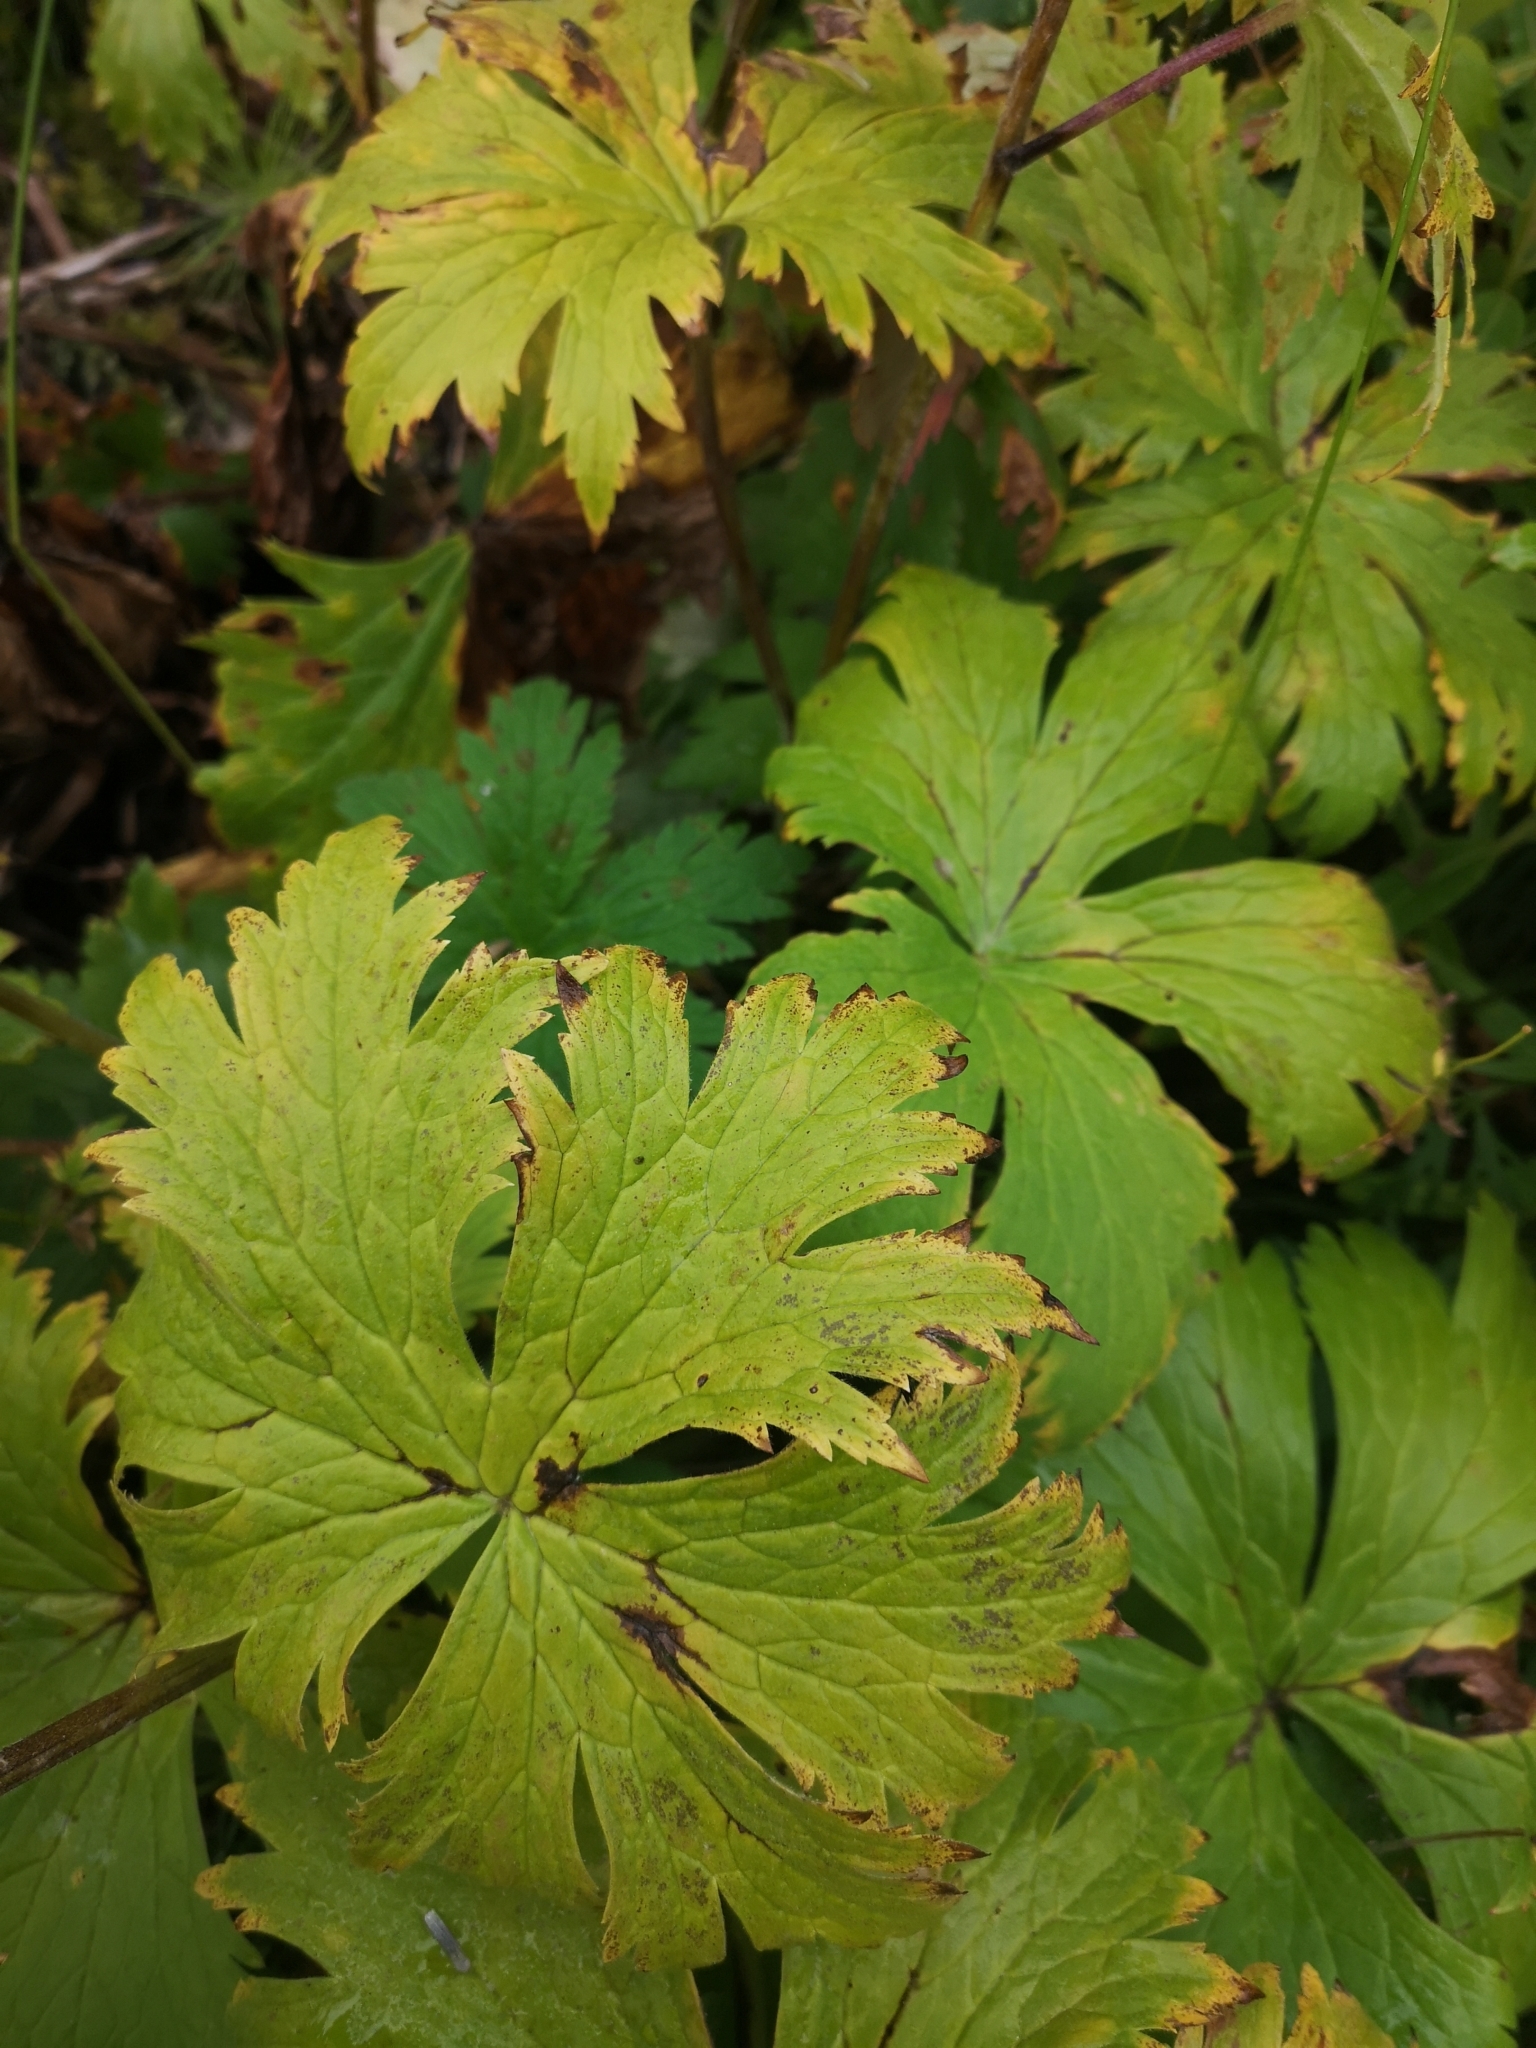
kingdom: Plantae
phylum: Tracheophyta
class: Magnoliopsida
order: Ranunculales
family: Ranunculaceae
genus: Aconitum
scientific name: Aconitum septentrionale
